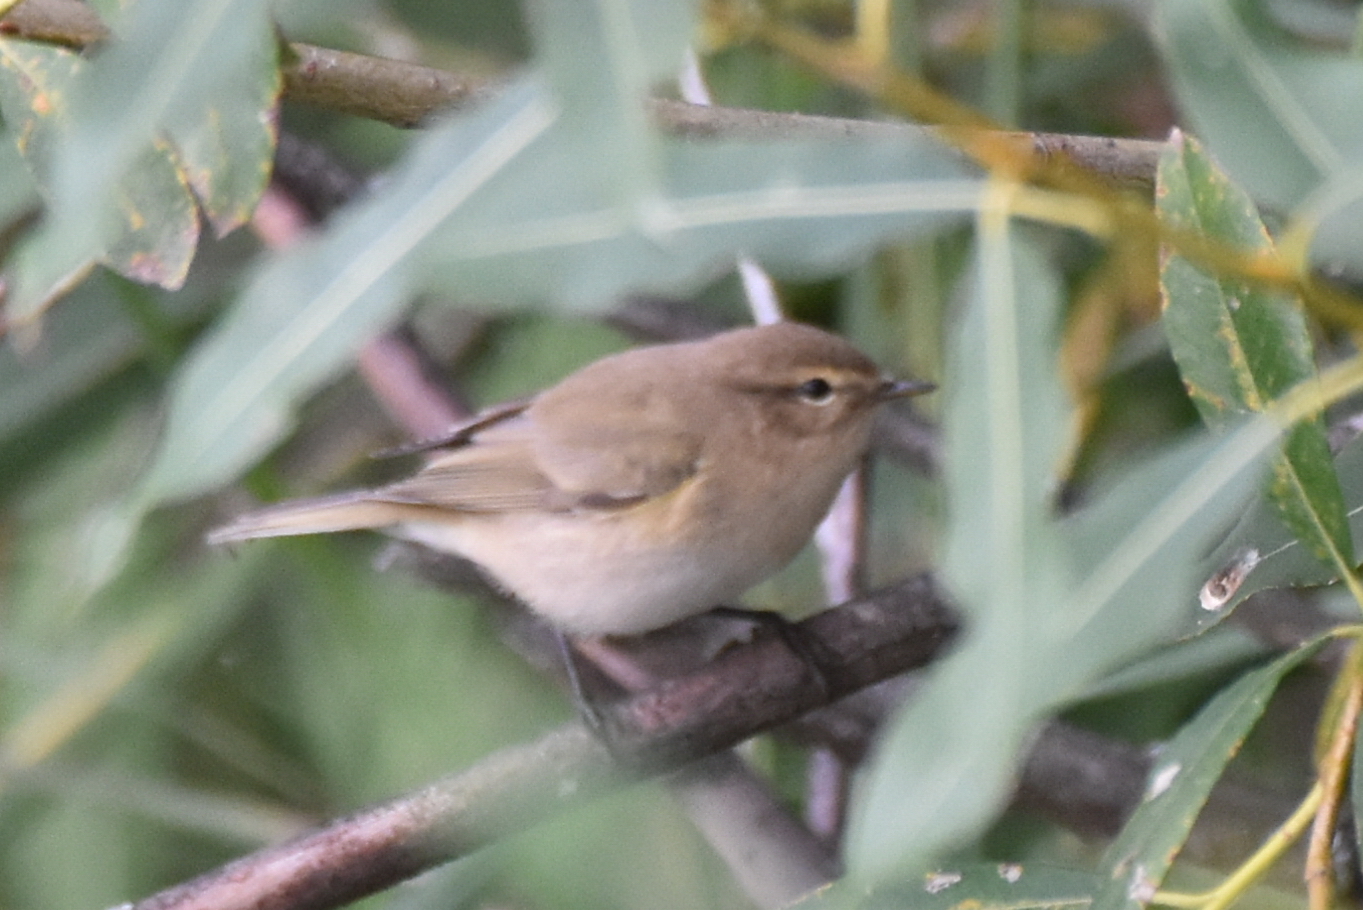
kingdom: Animalia
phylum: Chordata
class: Aves
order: Passeriformes
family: Phylloscopidae
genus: Phylloscopus
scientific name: Phylloscopus collybita
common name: Common chiffchaff
